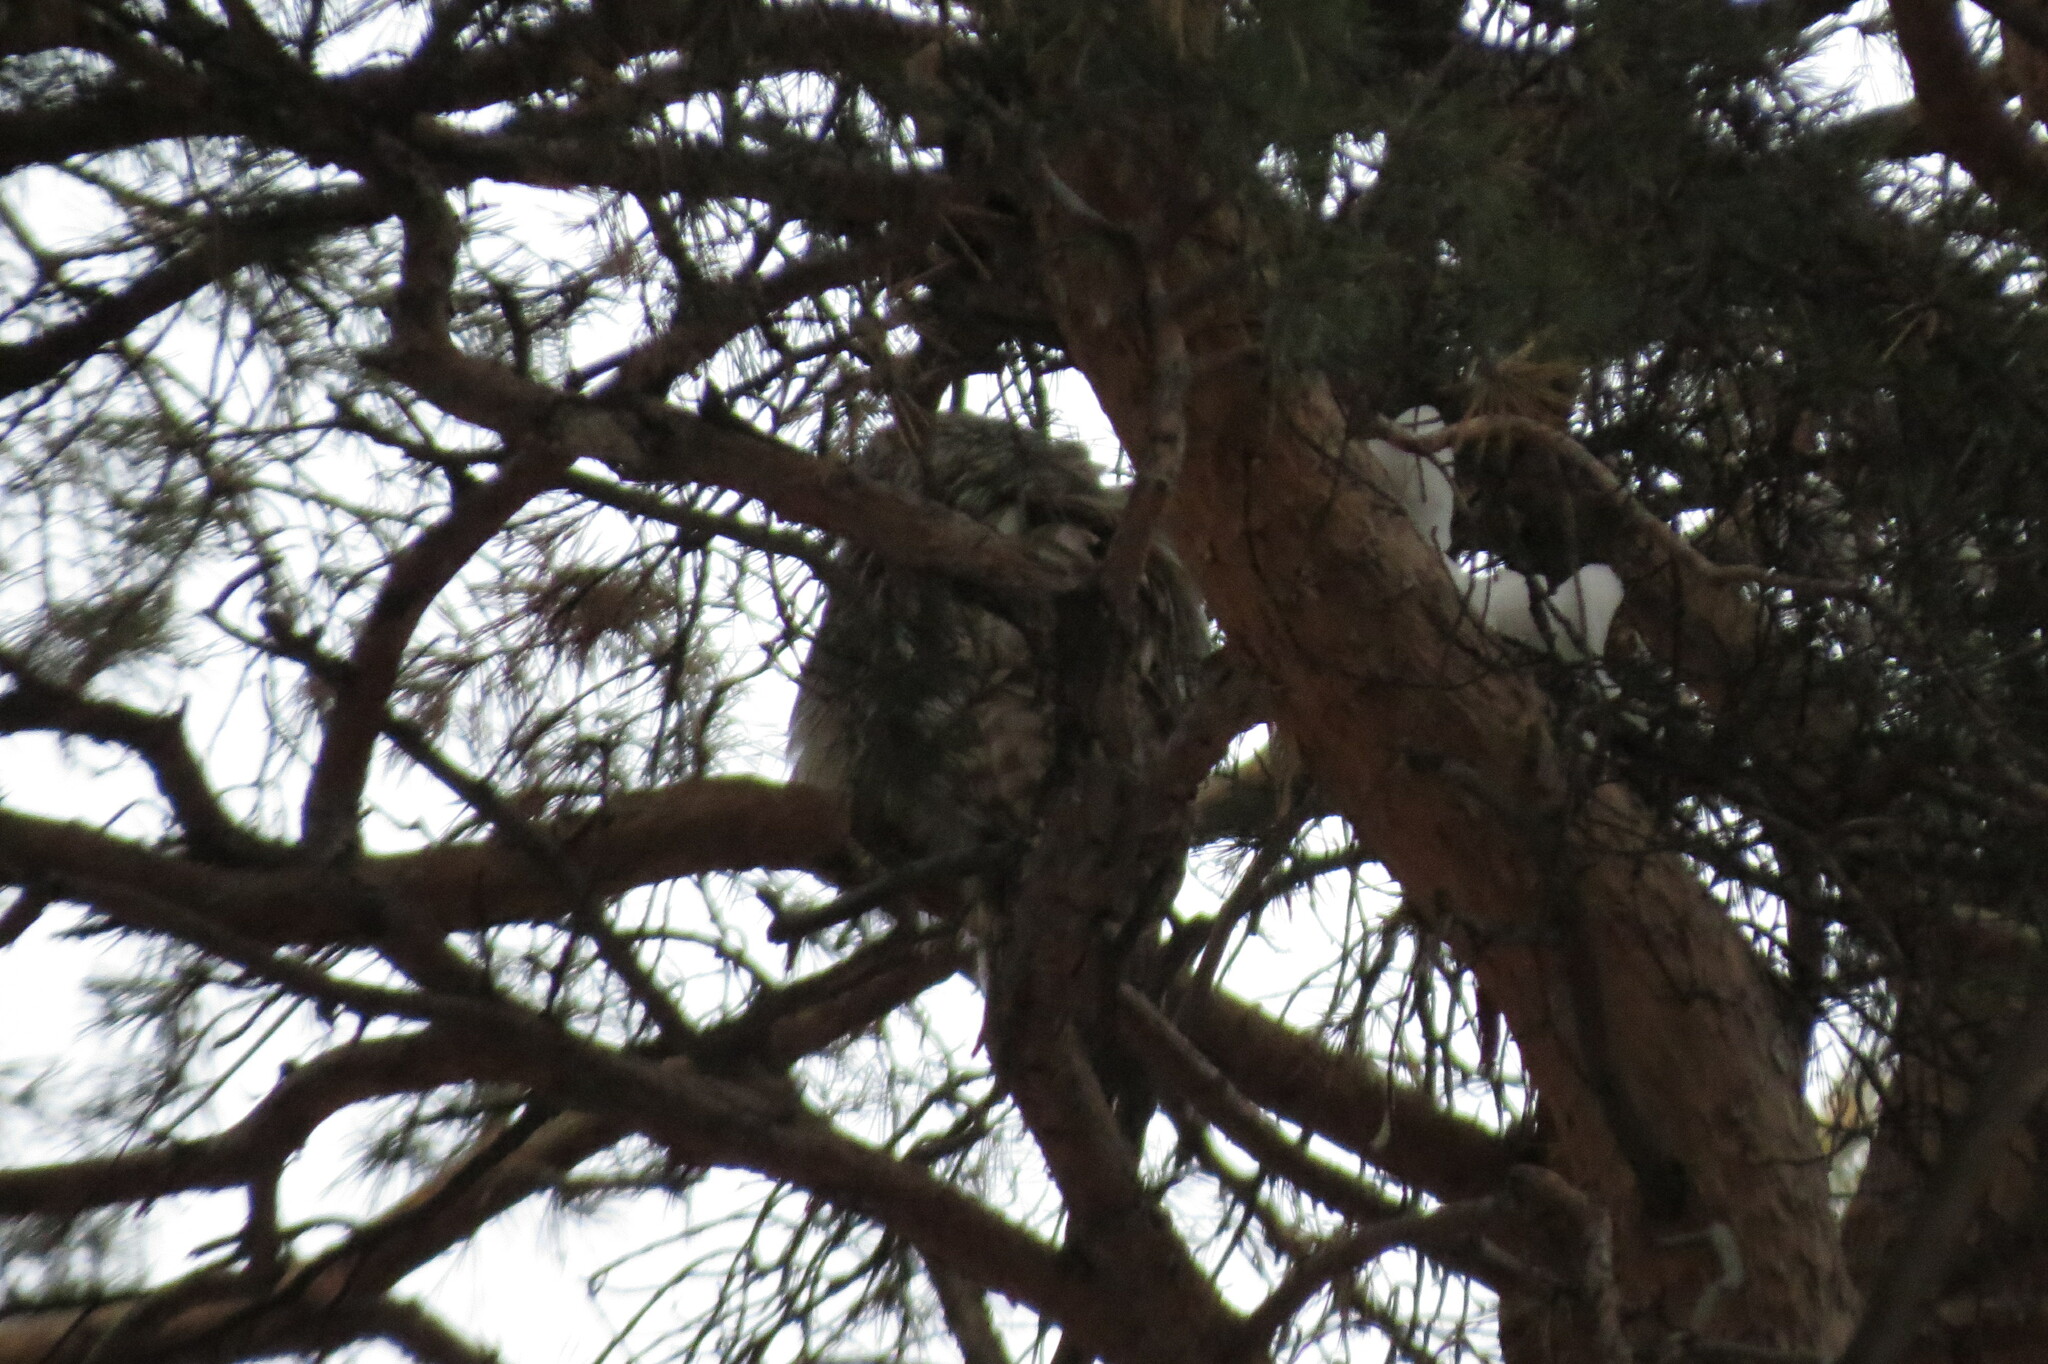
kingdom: Animalia
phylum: Chordata
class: Aves
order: Strigiformes
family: Strigidae
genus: Strix
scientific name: Strix uralensis
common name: Ural owl
